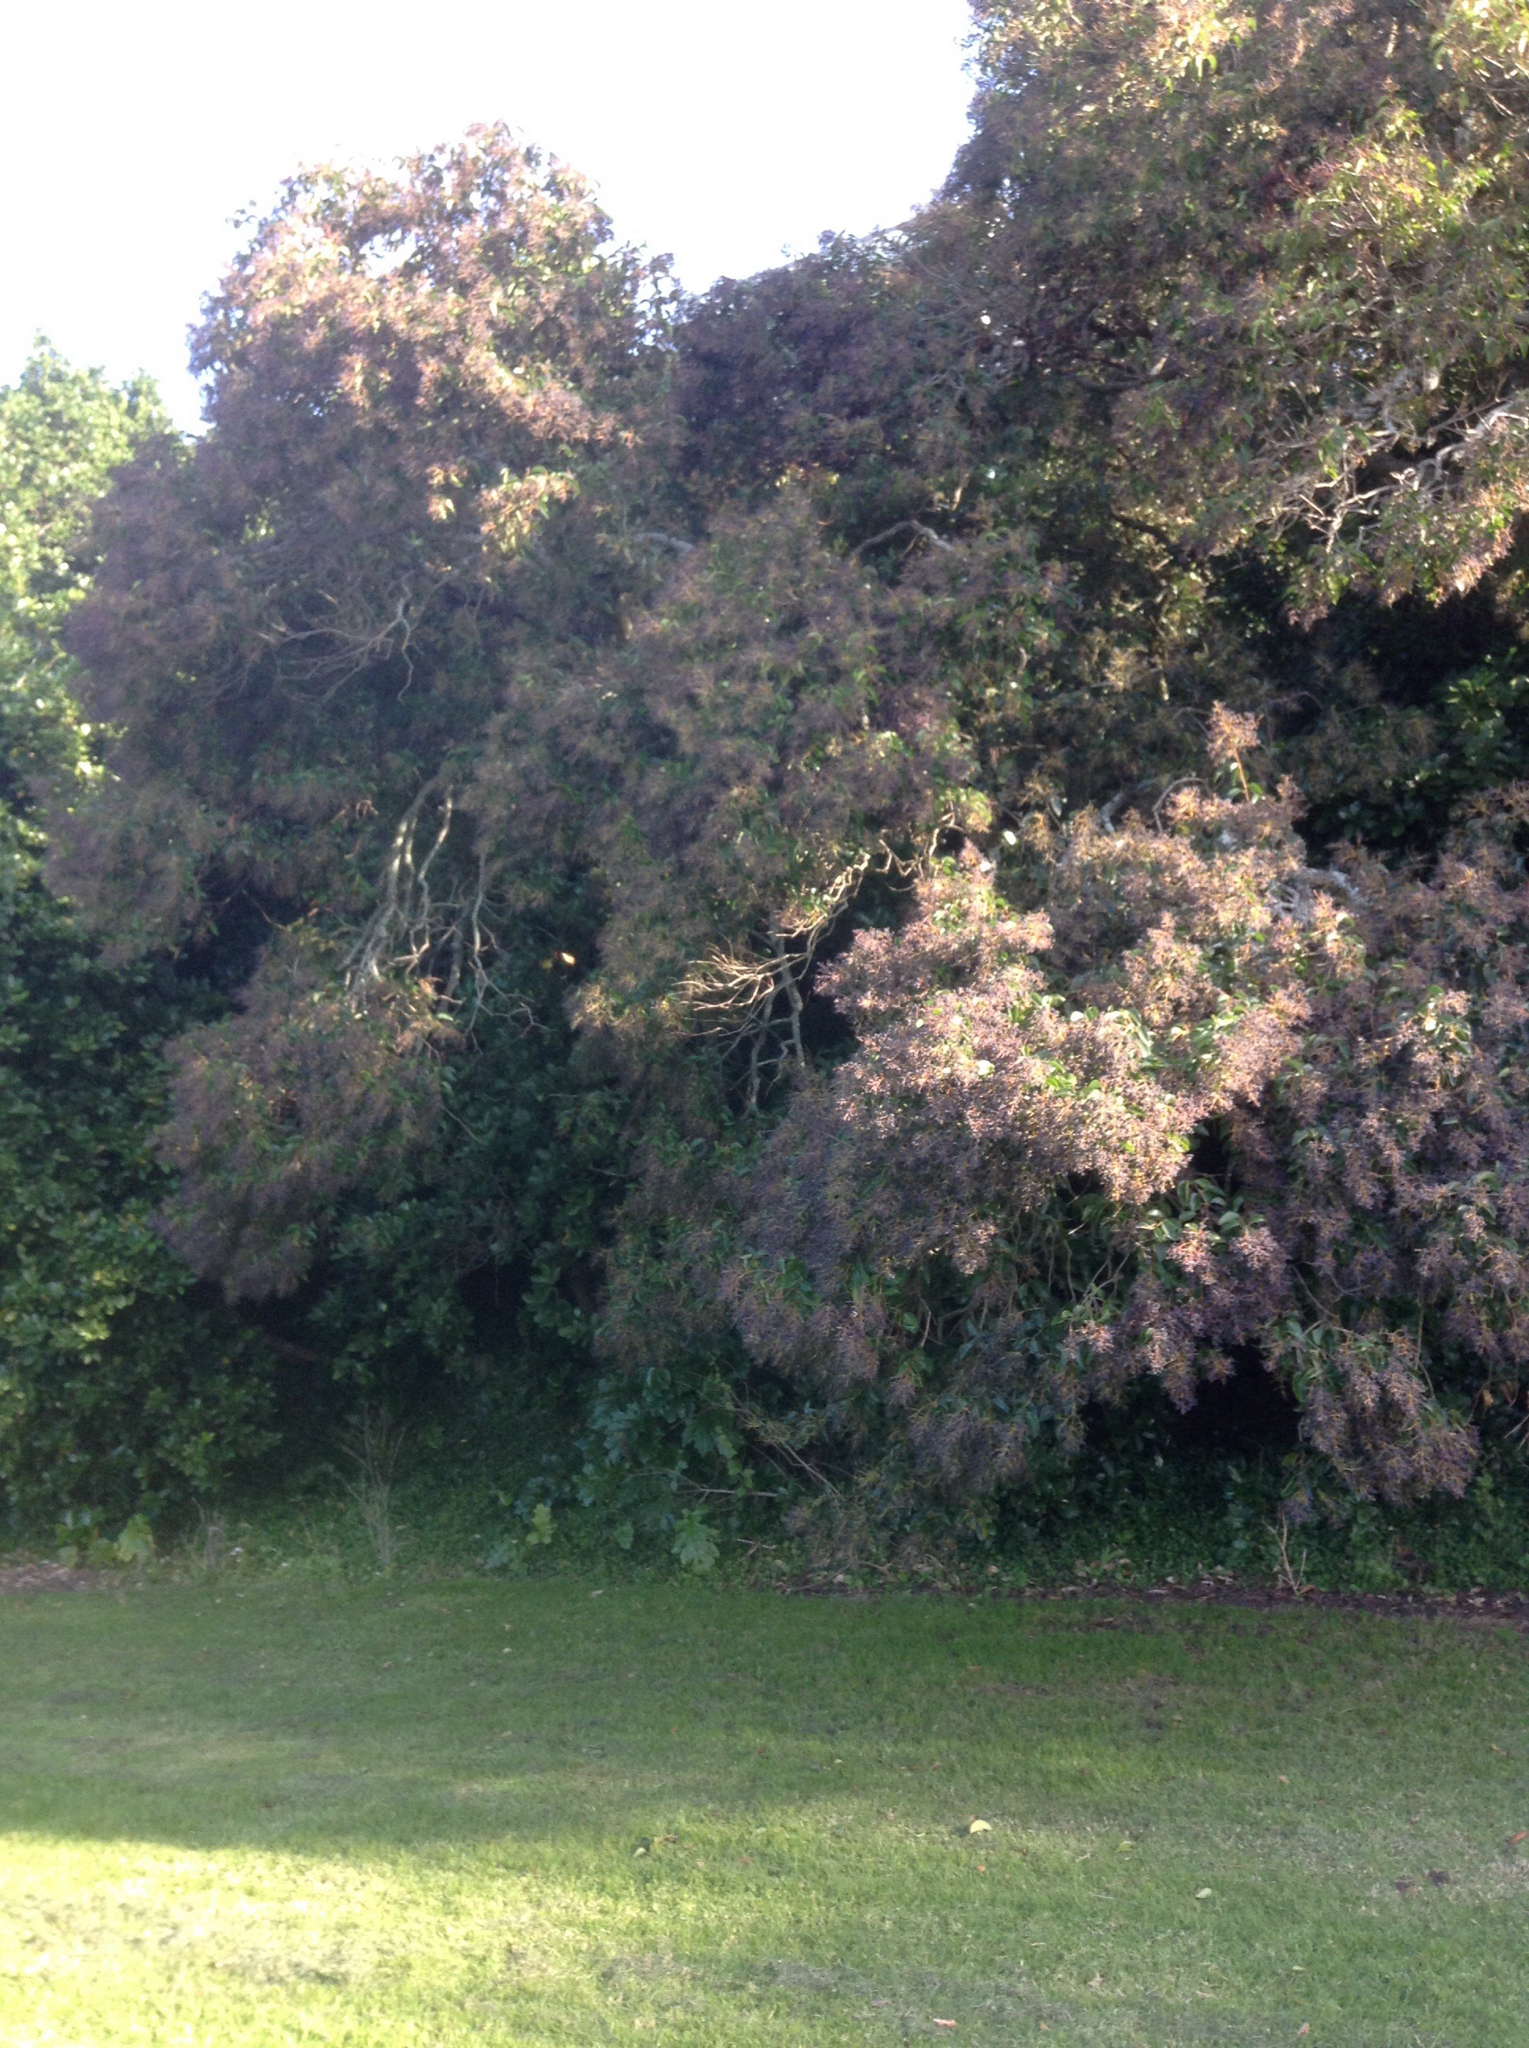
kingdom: Plantae
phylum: Tracheophyta
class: Magnoliopsida
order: Lamiales
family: Oleaceae
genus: Ligustrum
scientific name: Ligustrum lucidum
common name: Glossy privet
